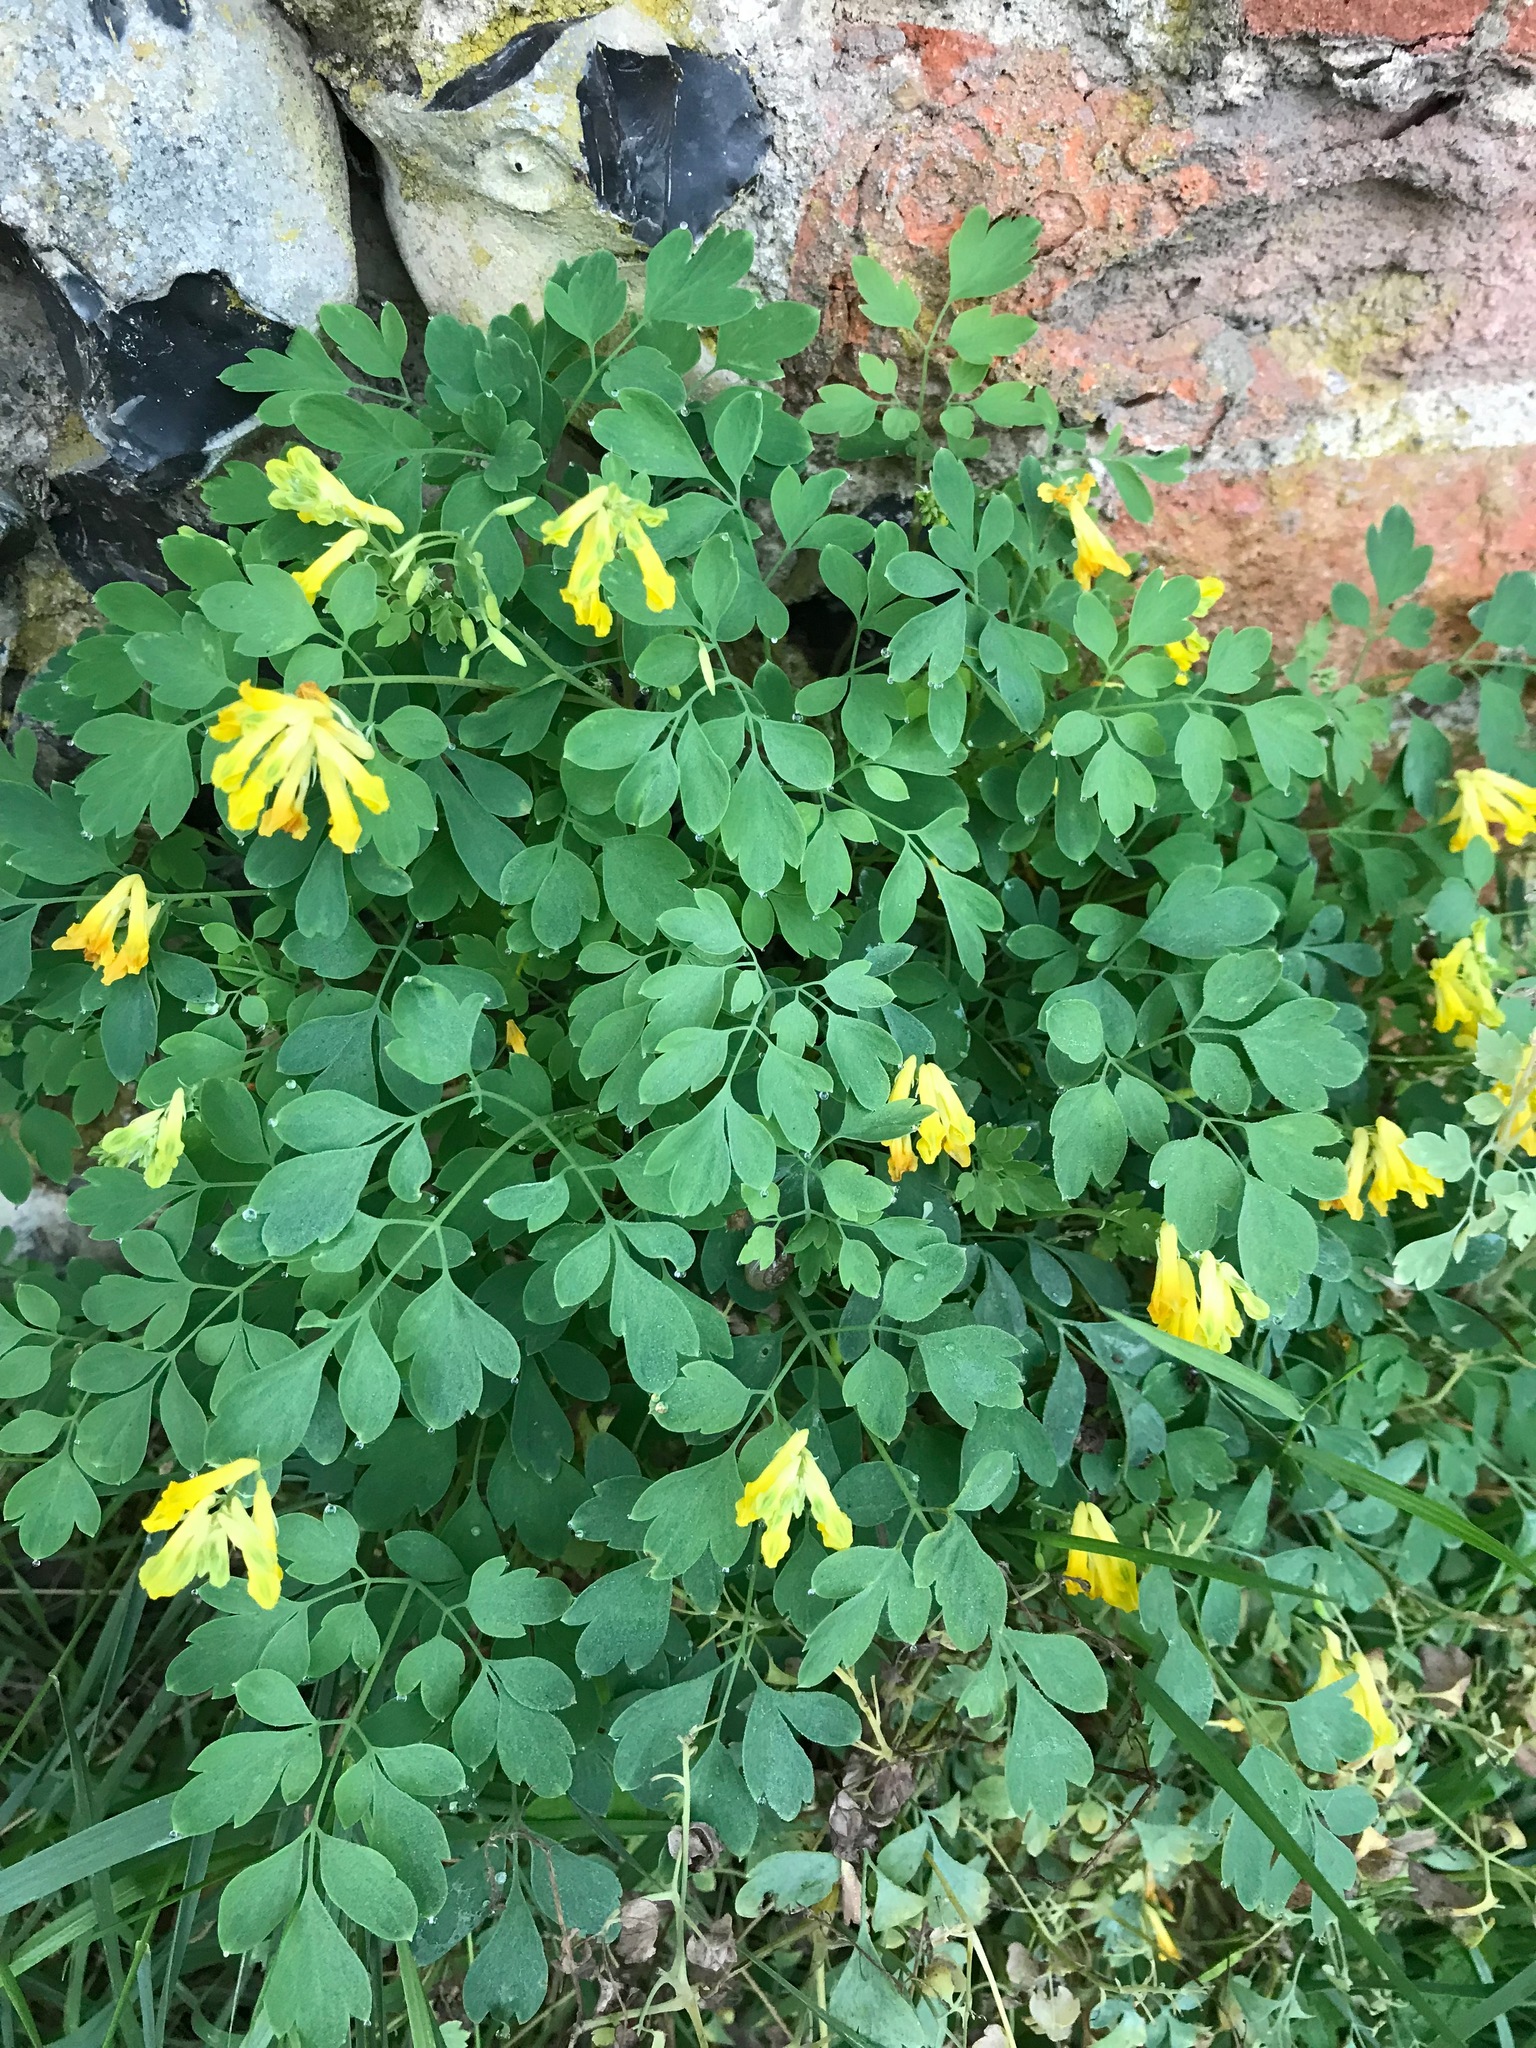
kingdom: Plantae
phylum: Tracheophyta
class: Magnoliopsida
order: Ranunculales
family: Papaveraceae
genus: Pseudofumaria
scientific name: Pseudofumaria lutea
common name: Yellow corydalis
